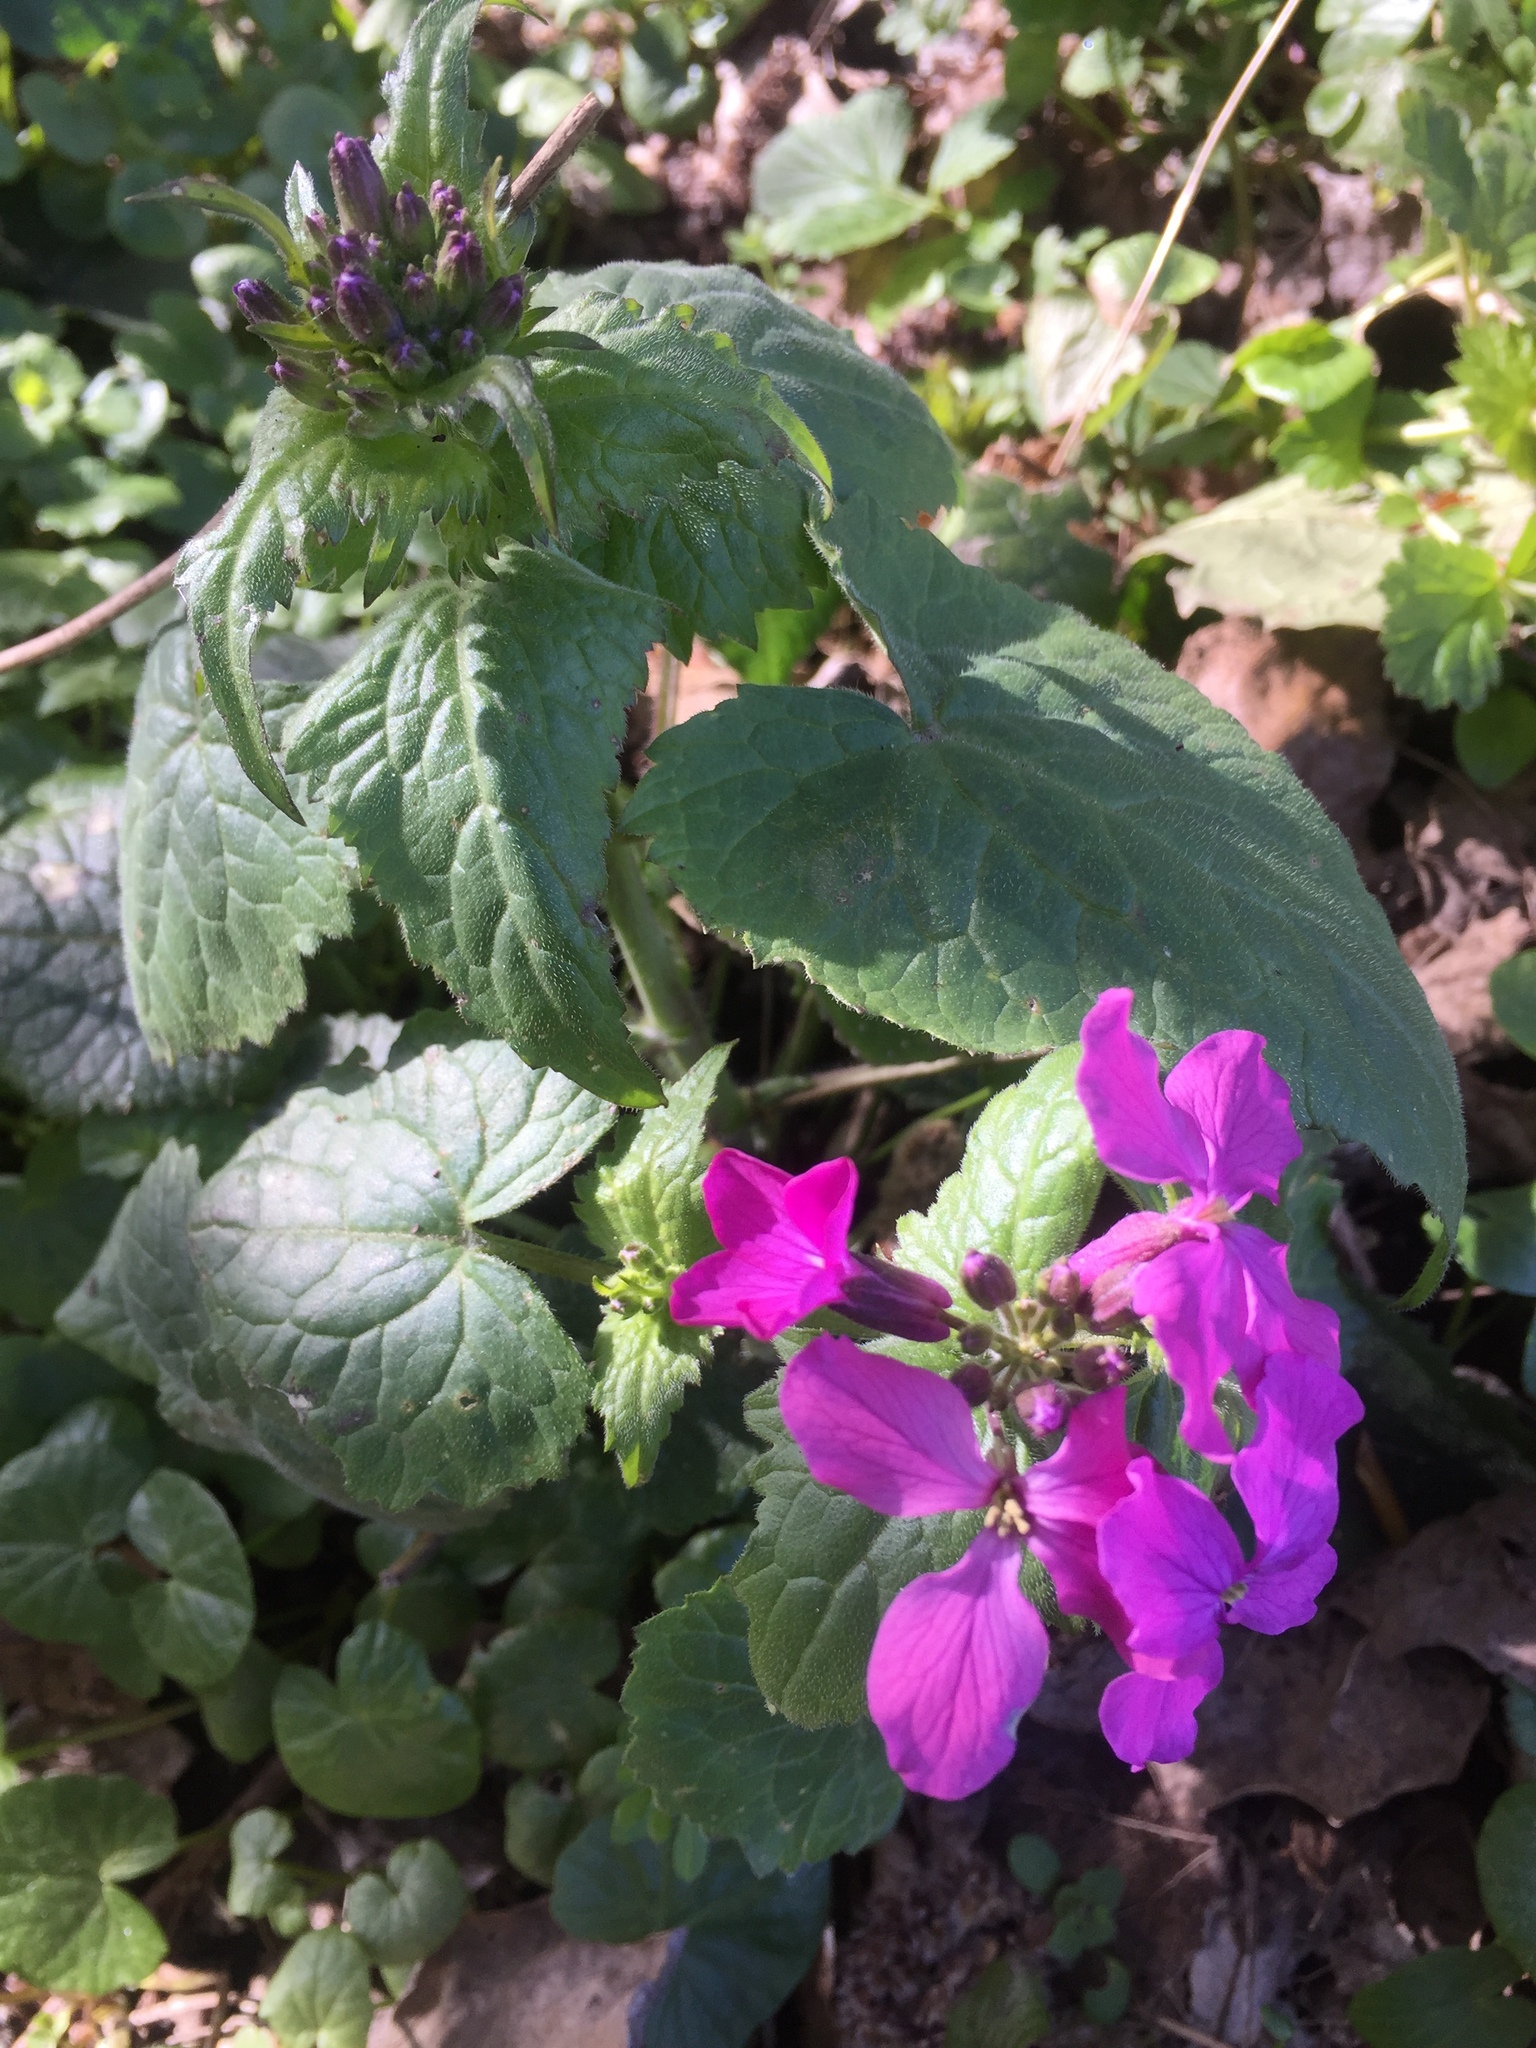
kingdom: Plantae
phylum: Tracheophyta
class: Magnoliopsida
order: Brassicales
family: Brassicaceae
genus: Lunaria
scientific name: Lunaria annua
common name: Honesty
